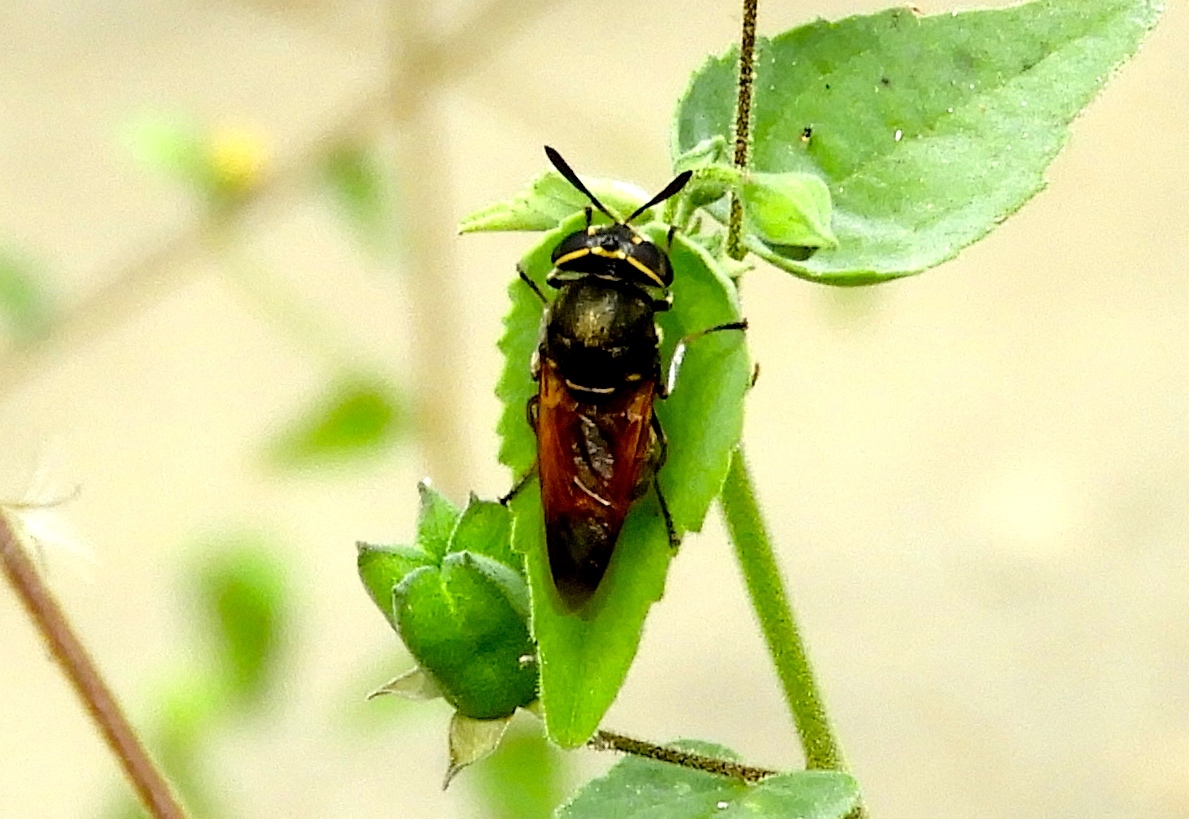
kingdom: Animalia
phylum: Arthropoda
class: Insecta
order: Diptera
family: Stratiomyidae
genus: Hoplitimyia
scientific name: Hoplitimyia
